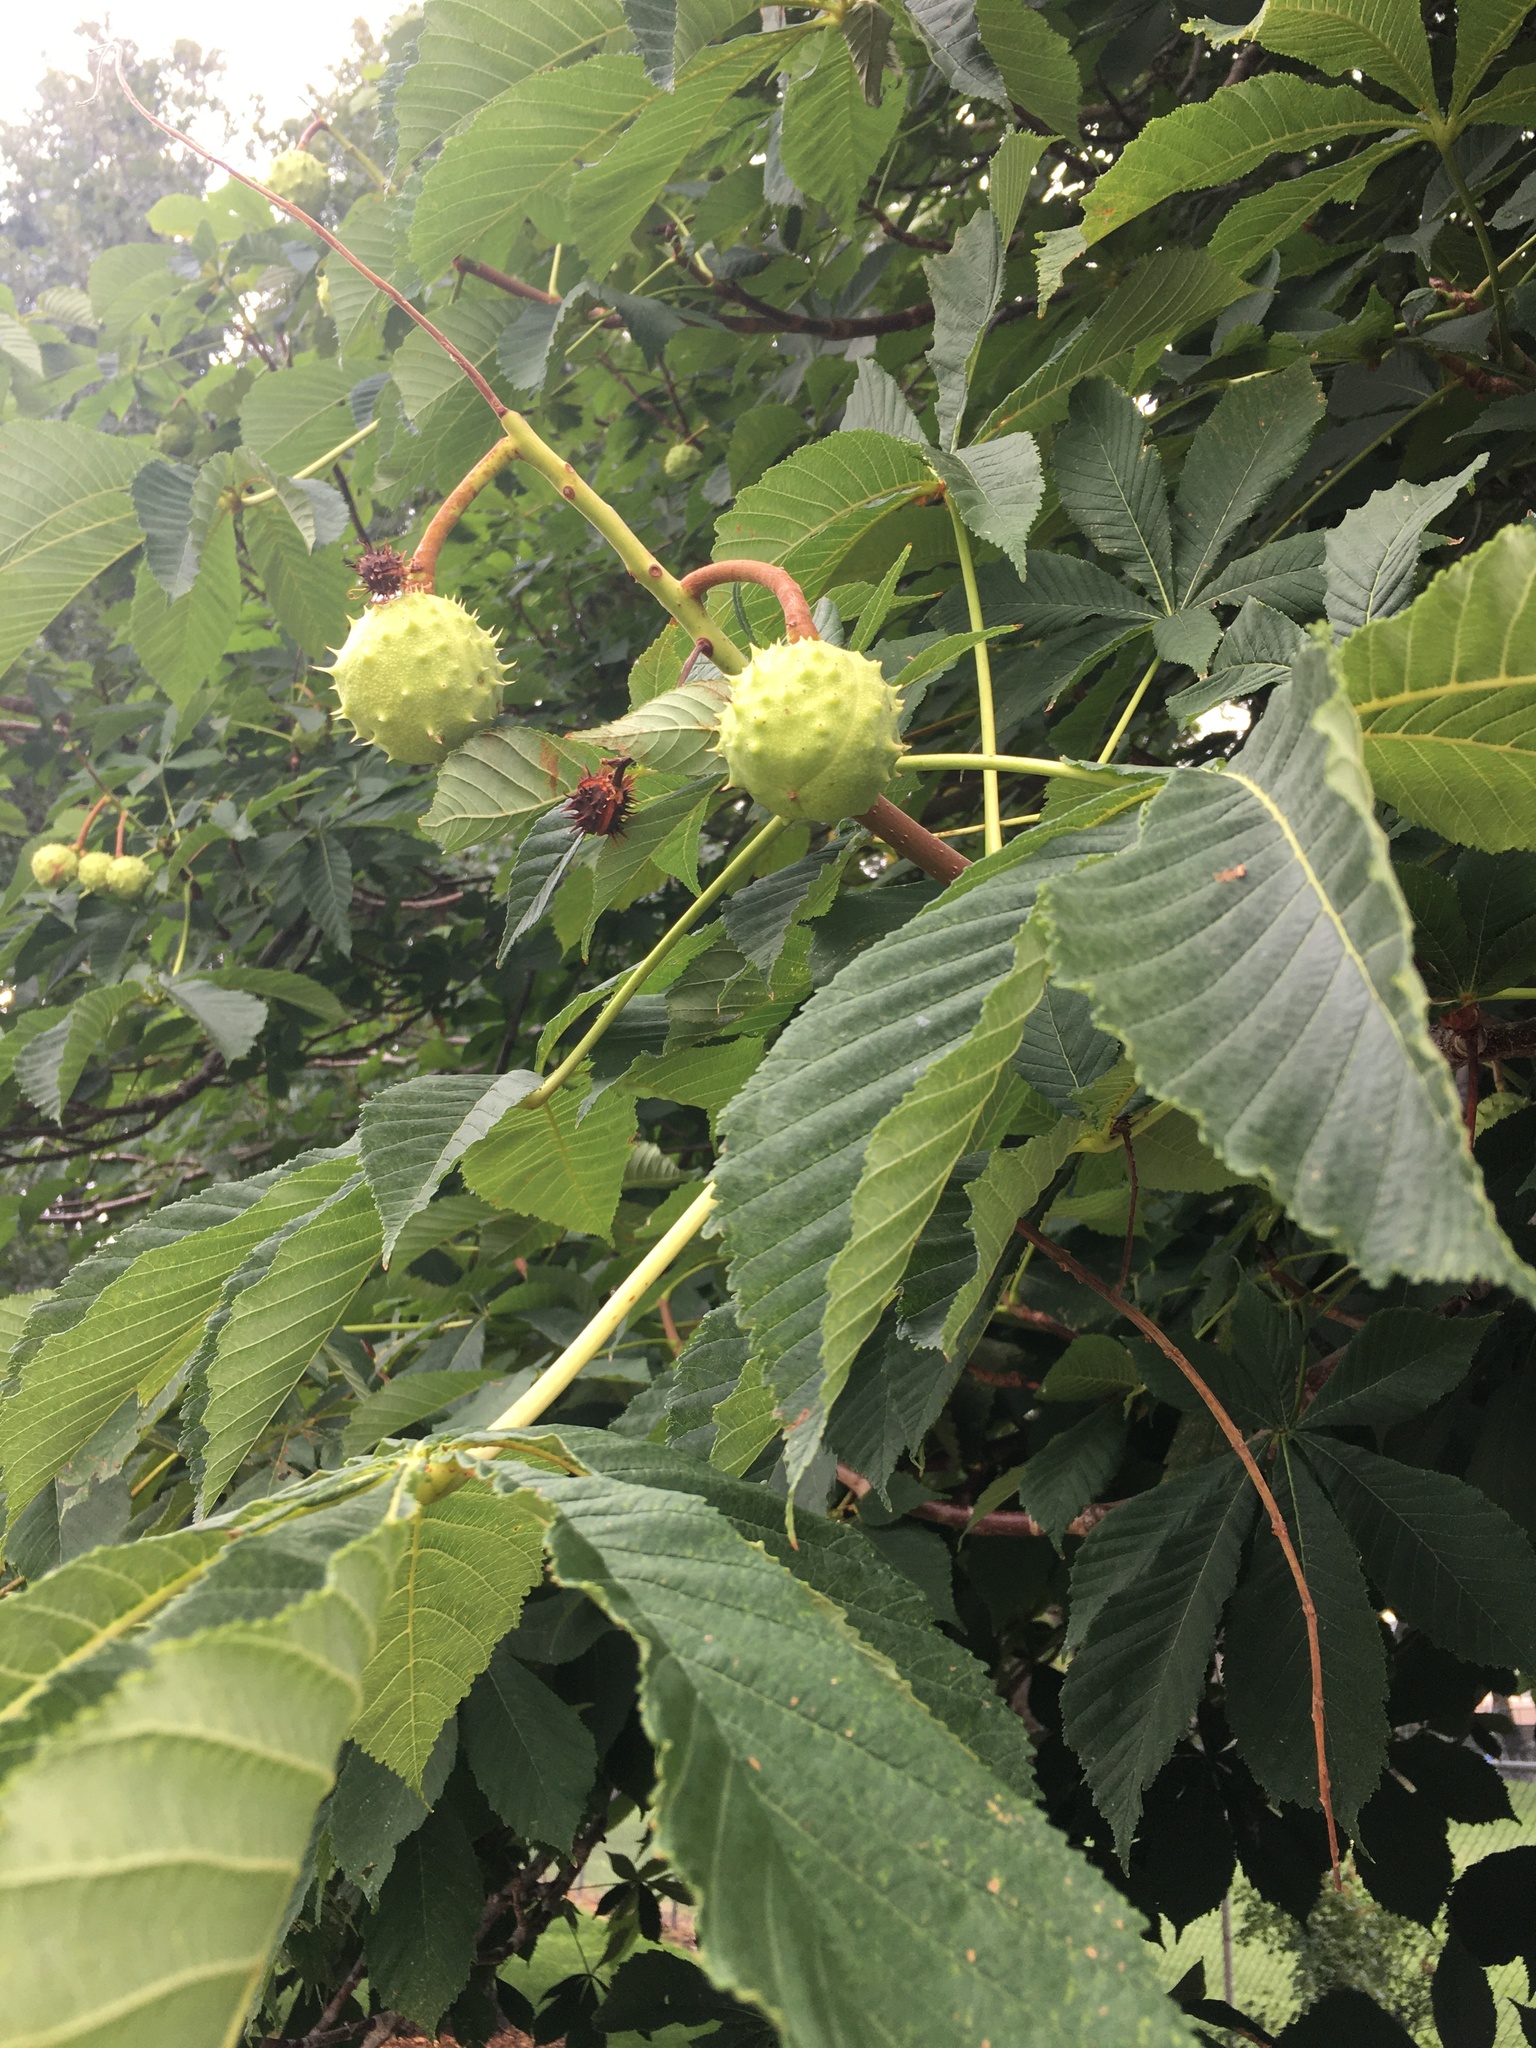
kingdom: Plantae
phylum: Tracheophyta
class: Magnoliopsida
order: Sapindales
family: Sapindaceae
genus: Aesculus
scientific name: Aesculus hippocastanum
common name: Horse-chestnut
